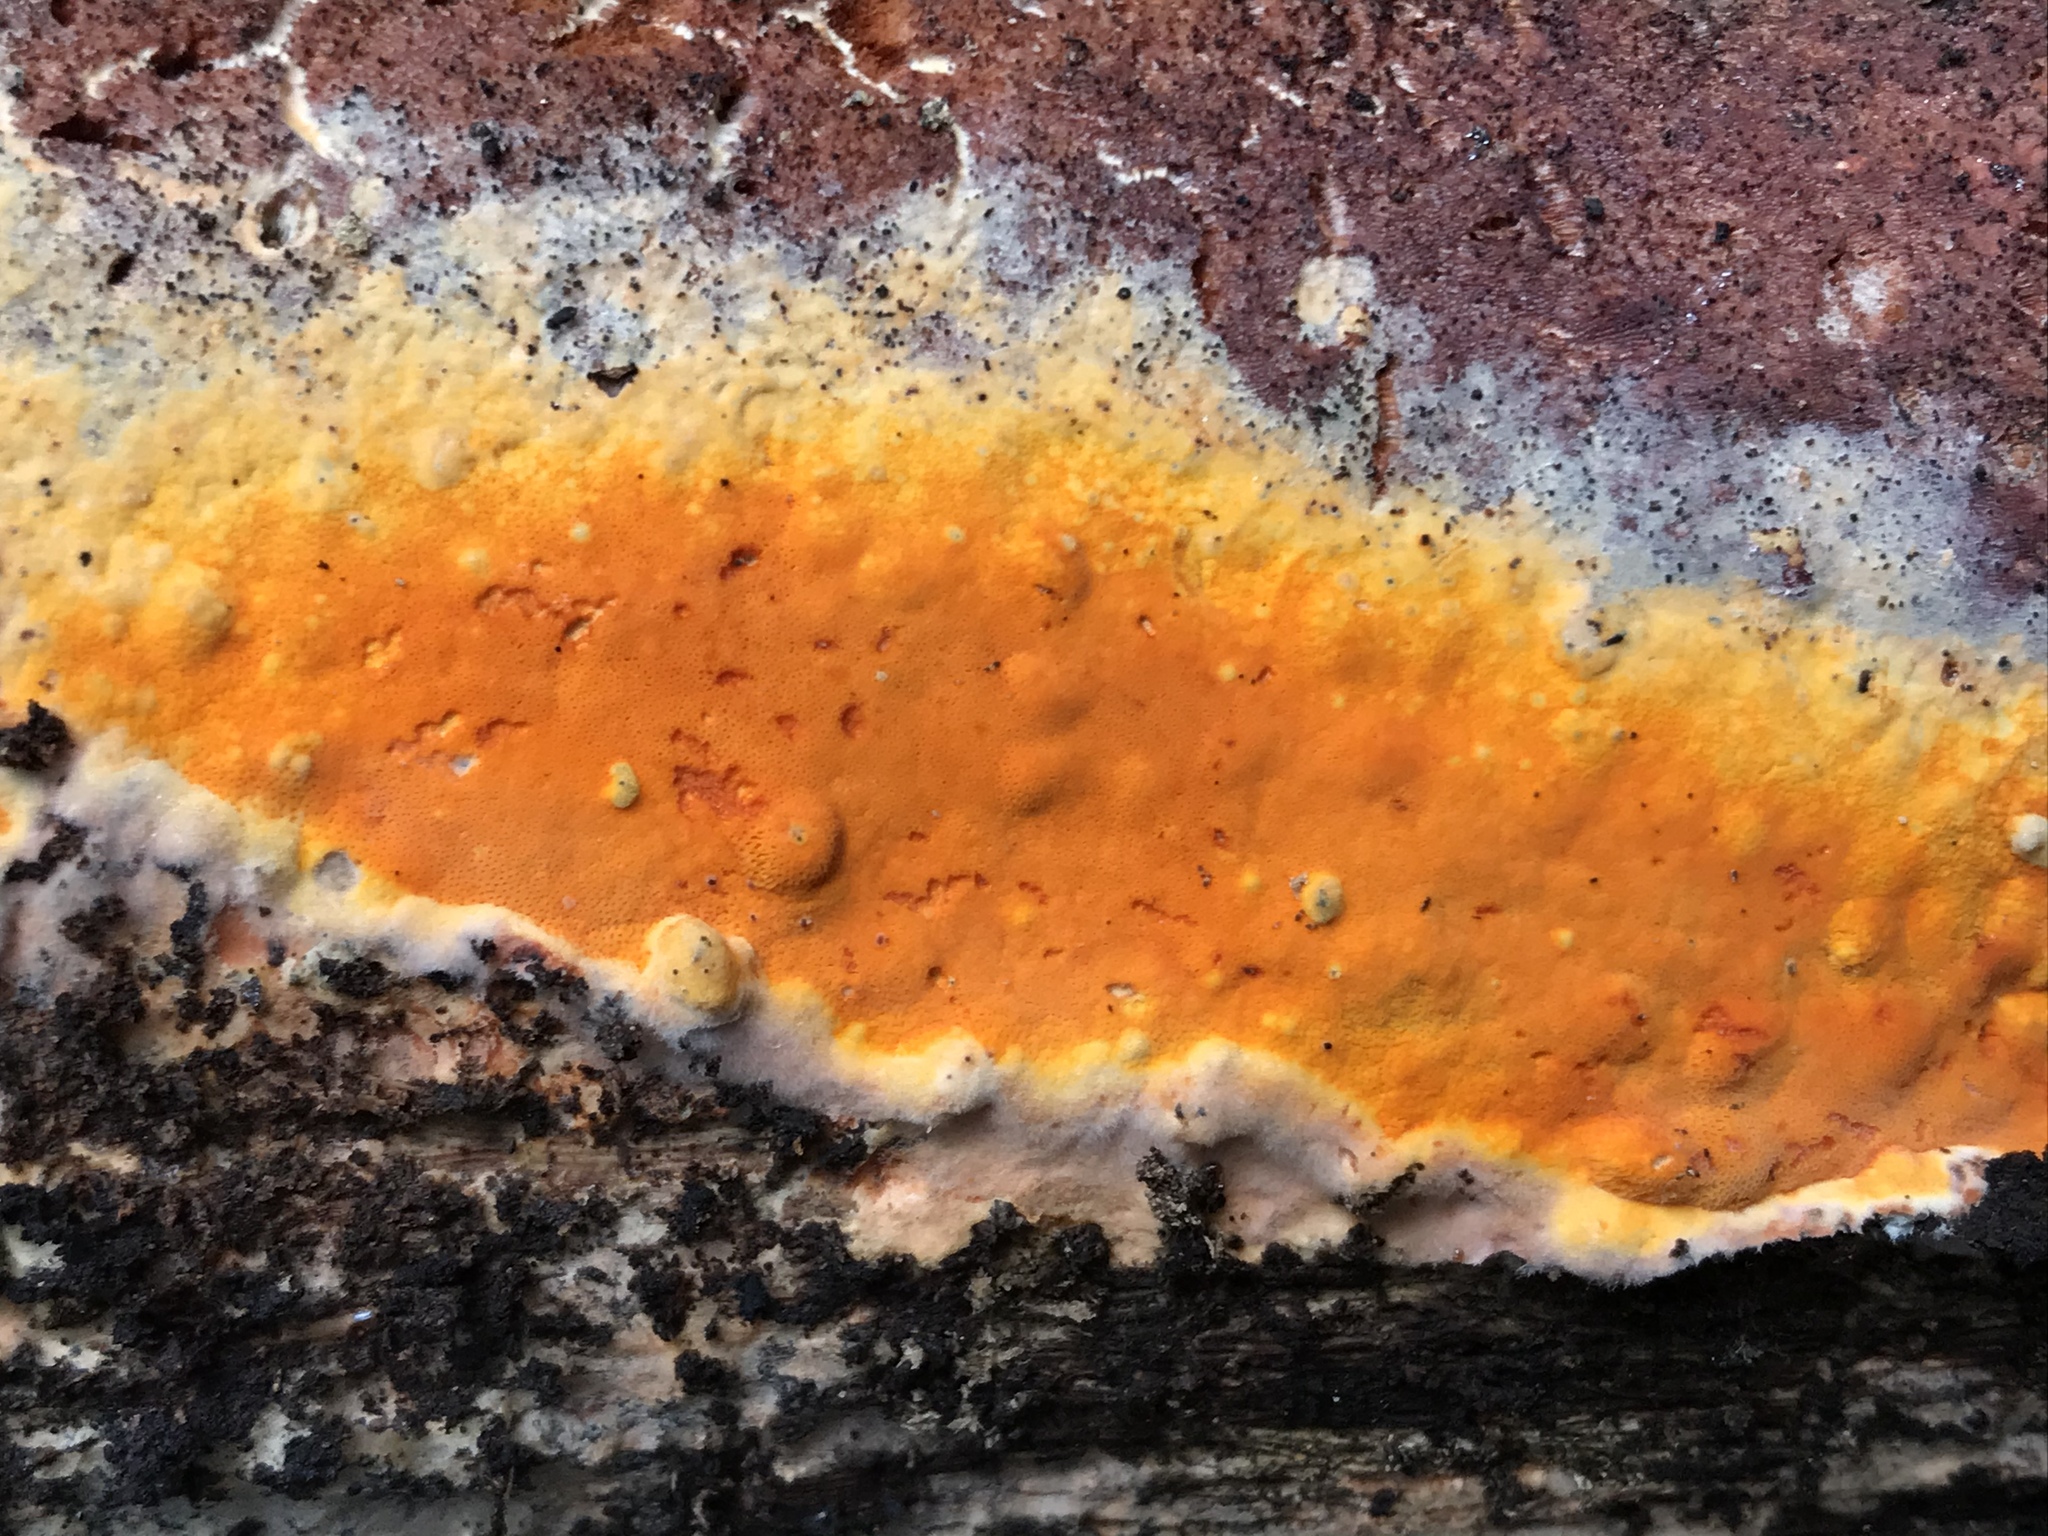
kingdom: Fungi
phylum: Basidiomycota
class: Agaricomycetes
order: Polyporales
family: Irpicaceae
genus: Ceriporia
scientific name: Ceriporia spissa
